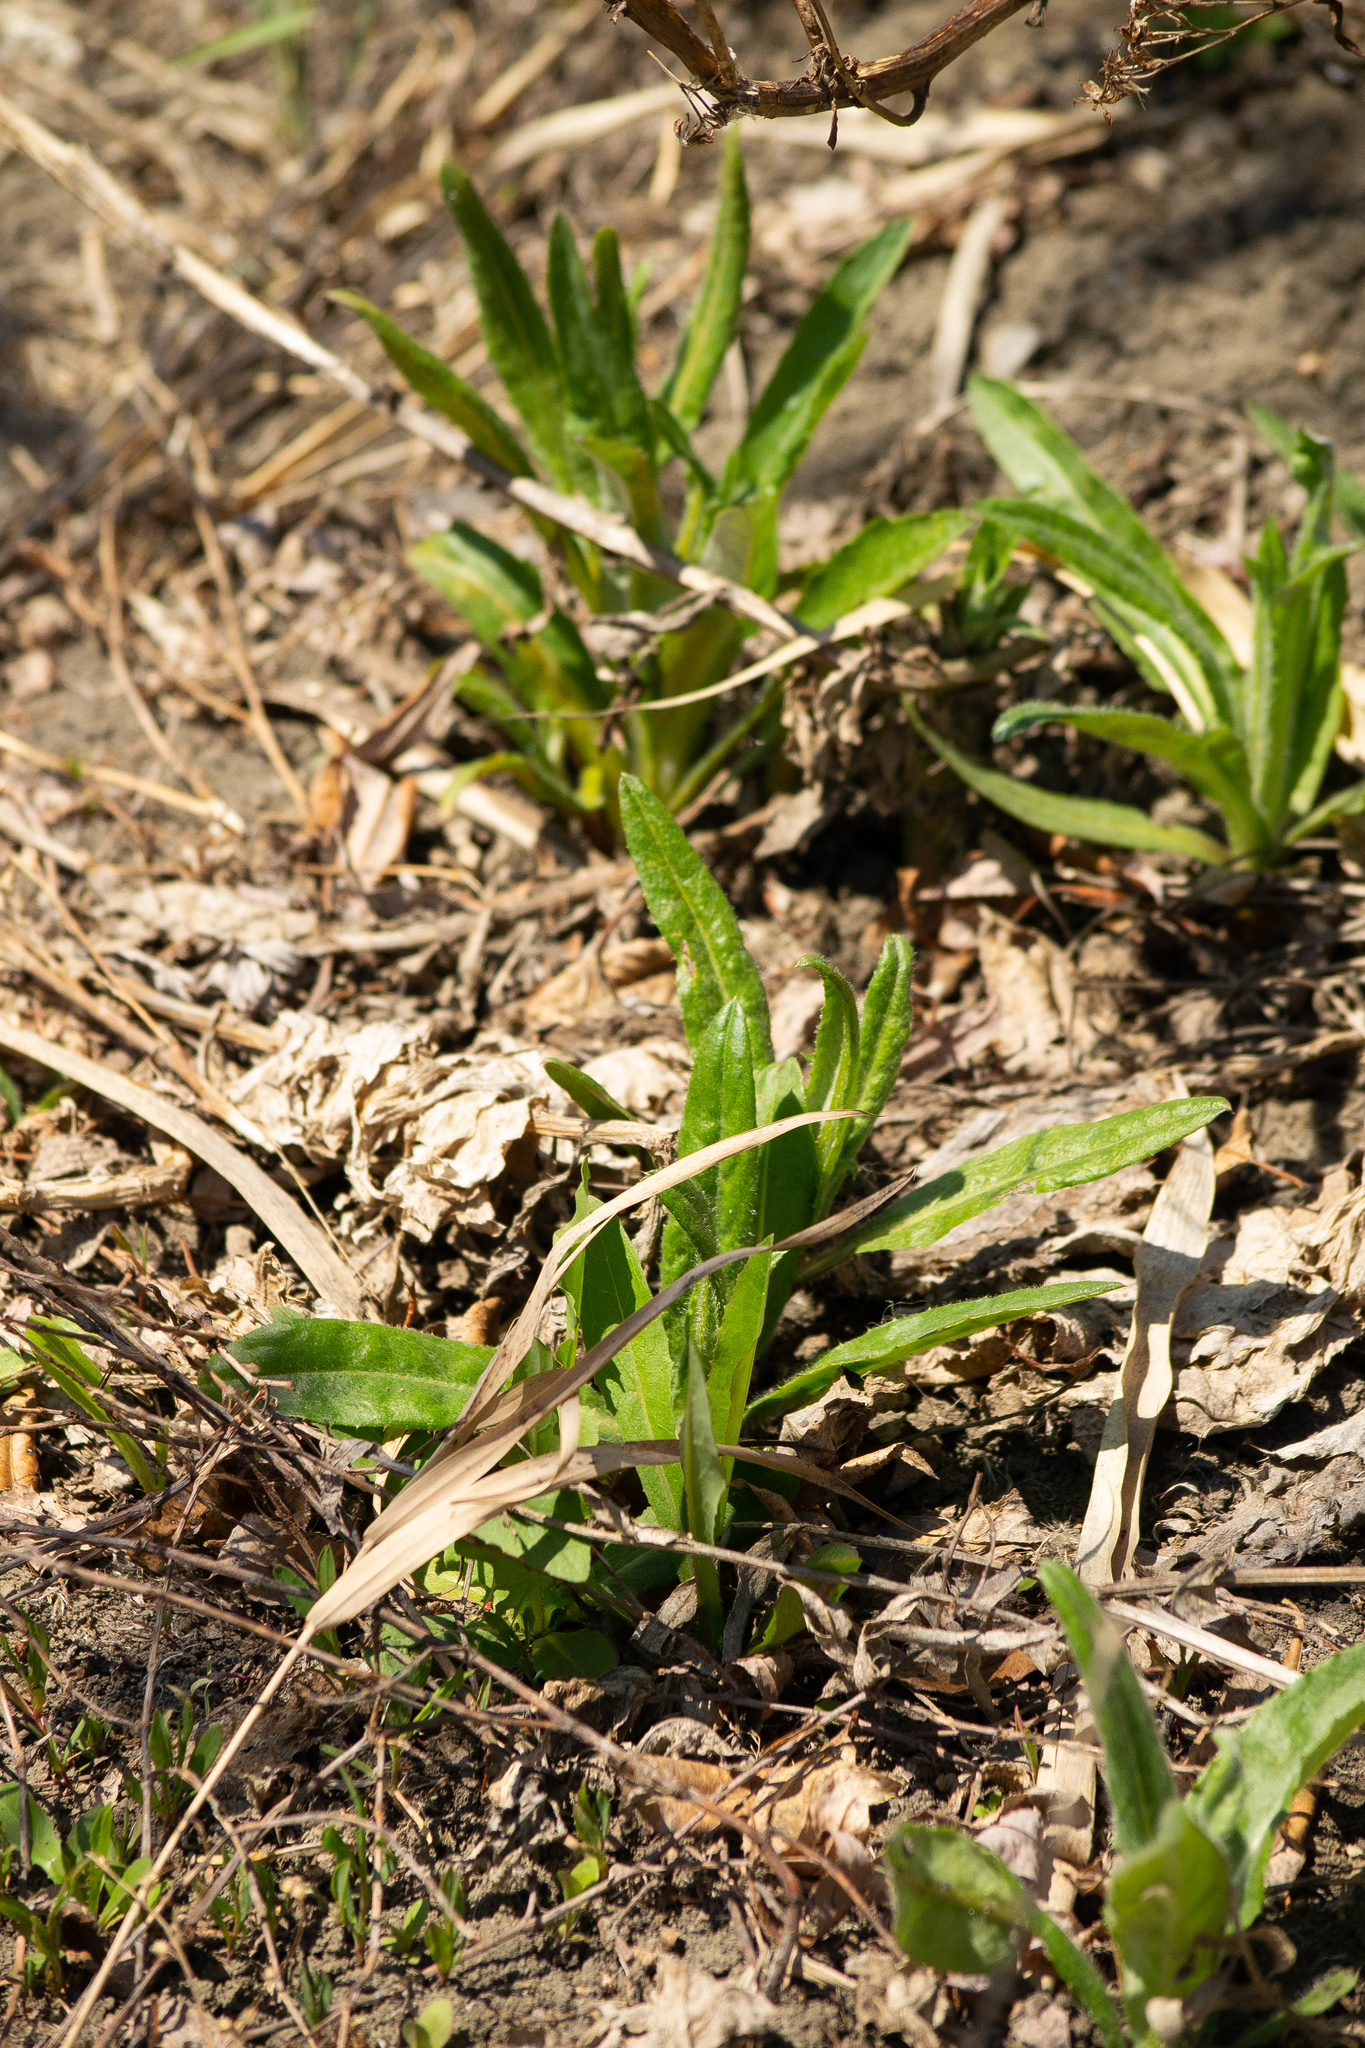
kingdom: Plantae
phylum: Tracheophyta
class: Magnoliopsida
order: Asterales
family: Asteraceae
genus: Cirsium
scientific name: Cirsium arvense
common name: Creeping thistle
